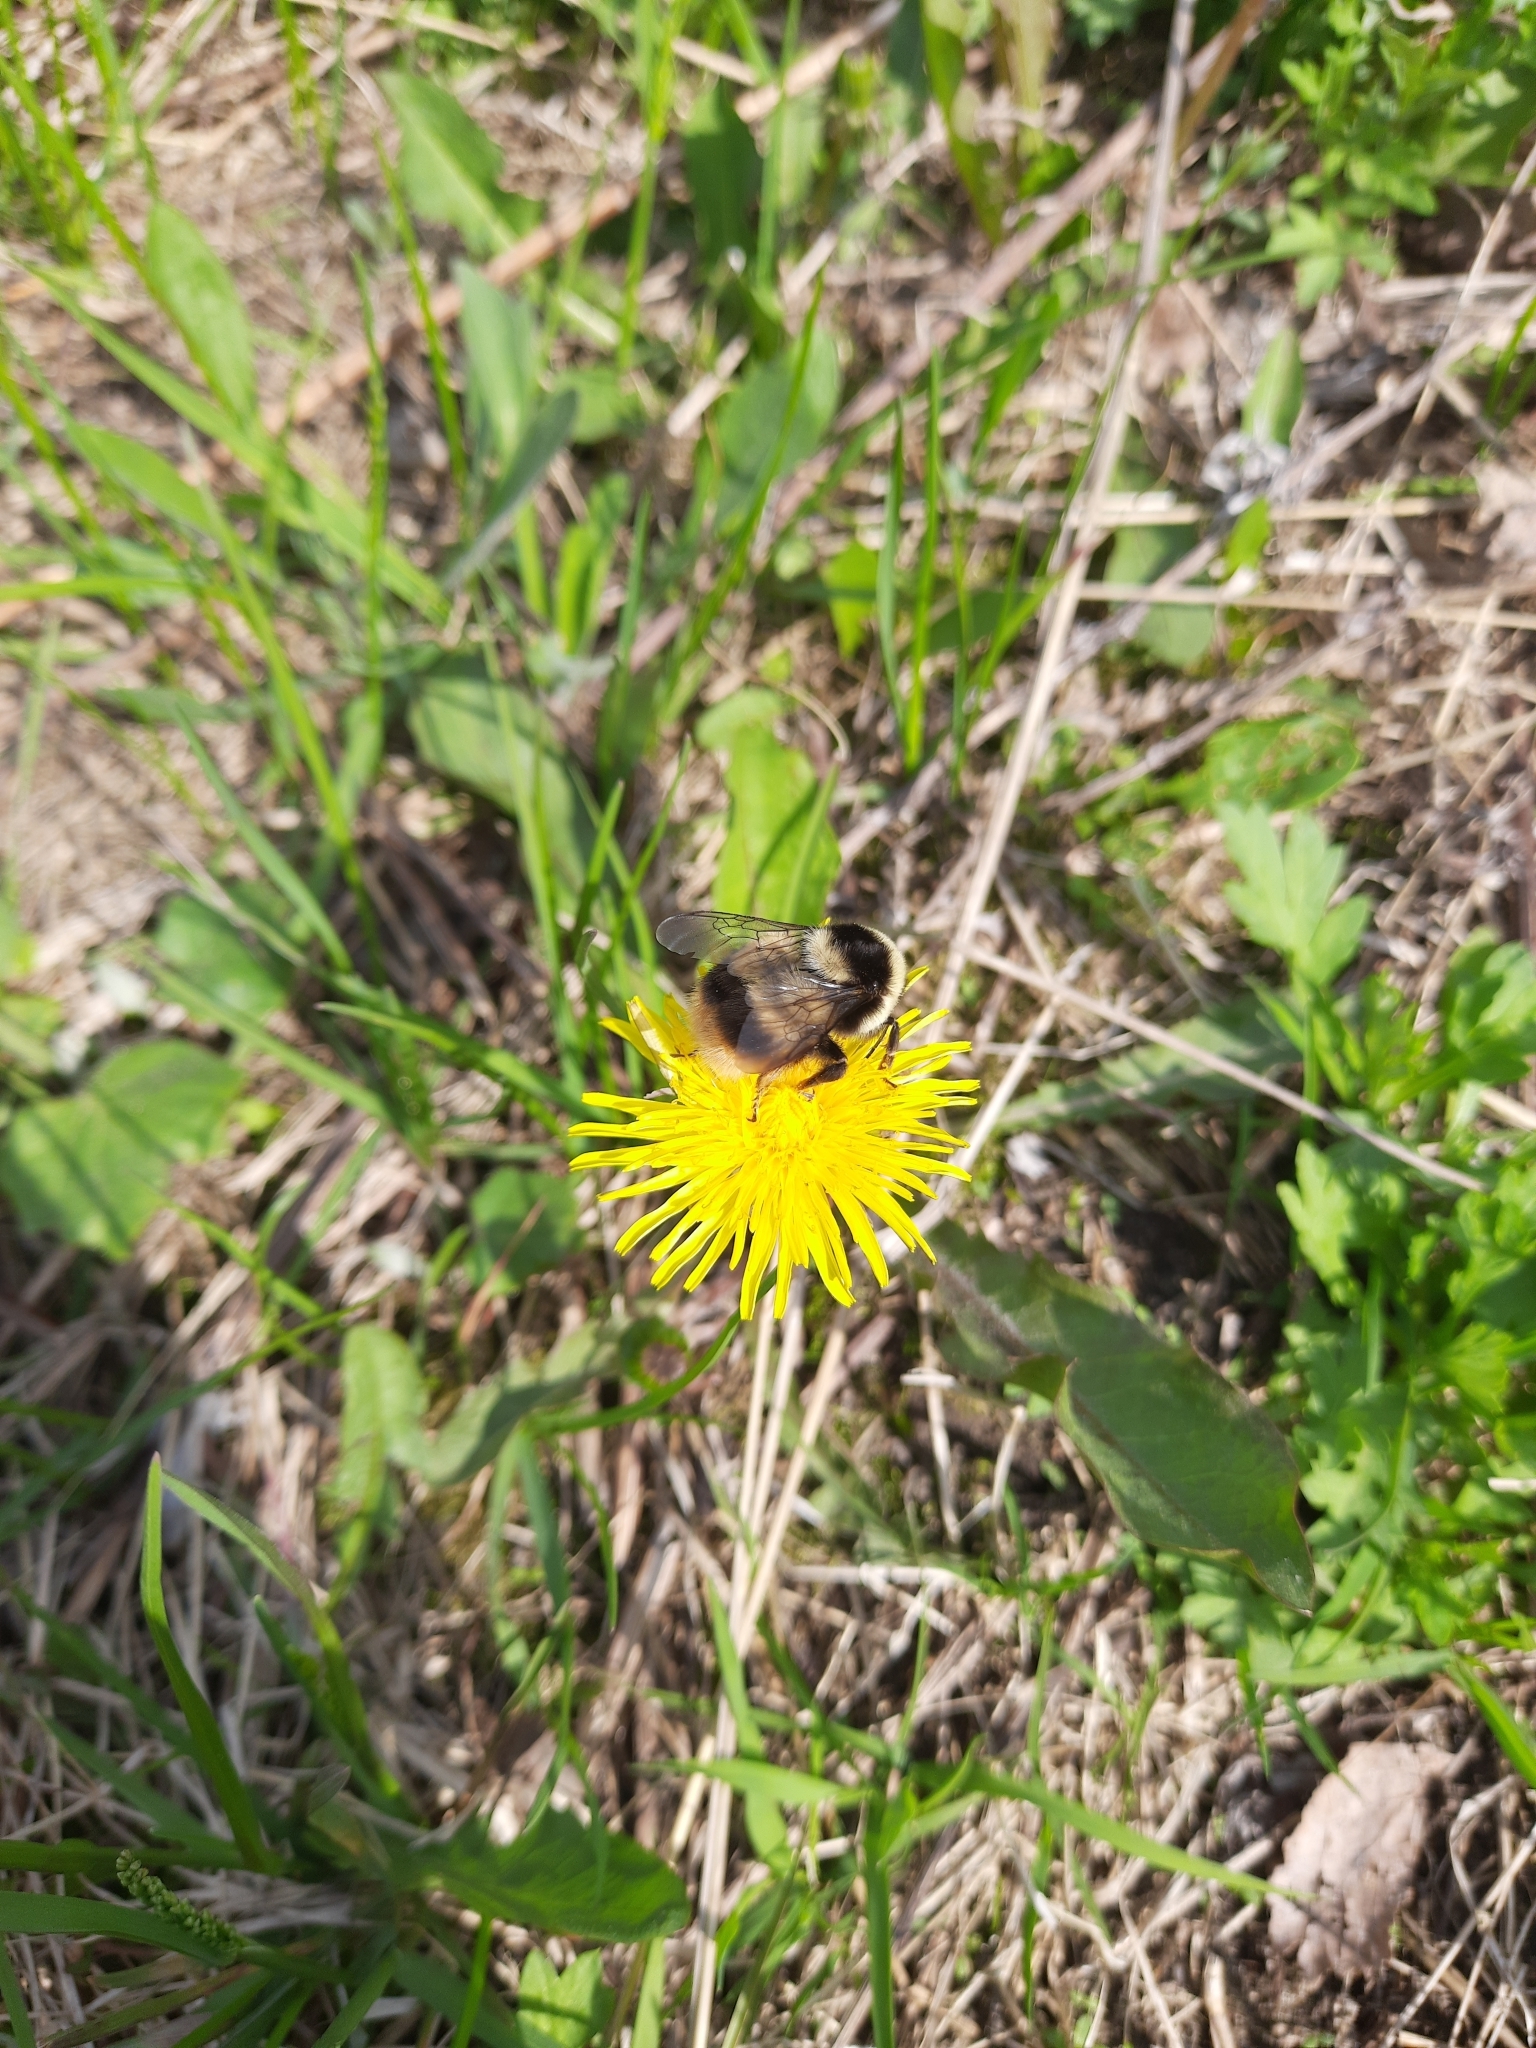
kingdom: Animalia
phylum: Arthropoda
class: Insecta
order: Hymenoptera
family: Apidae
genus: Bombus
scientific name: Bombus sichelii
